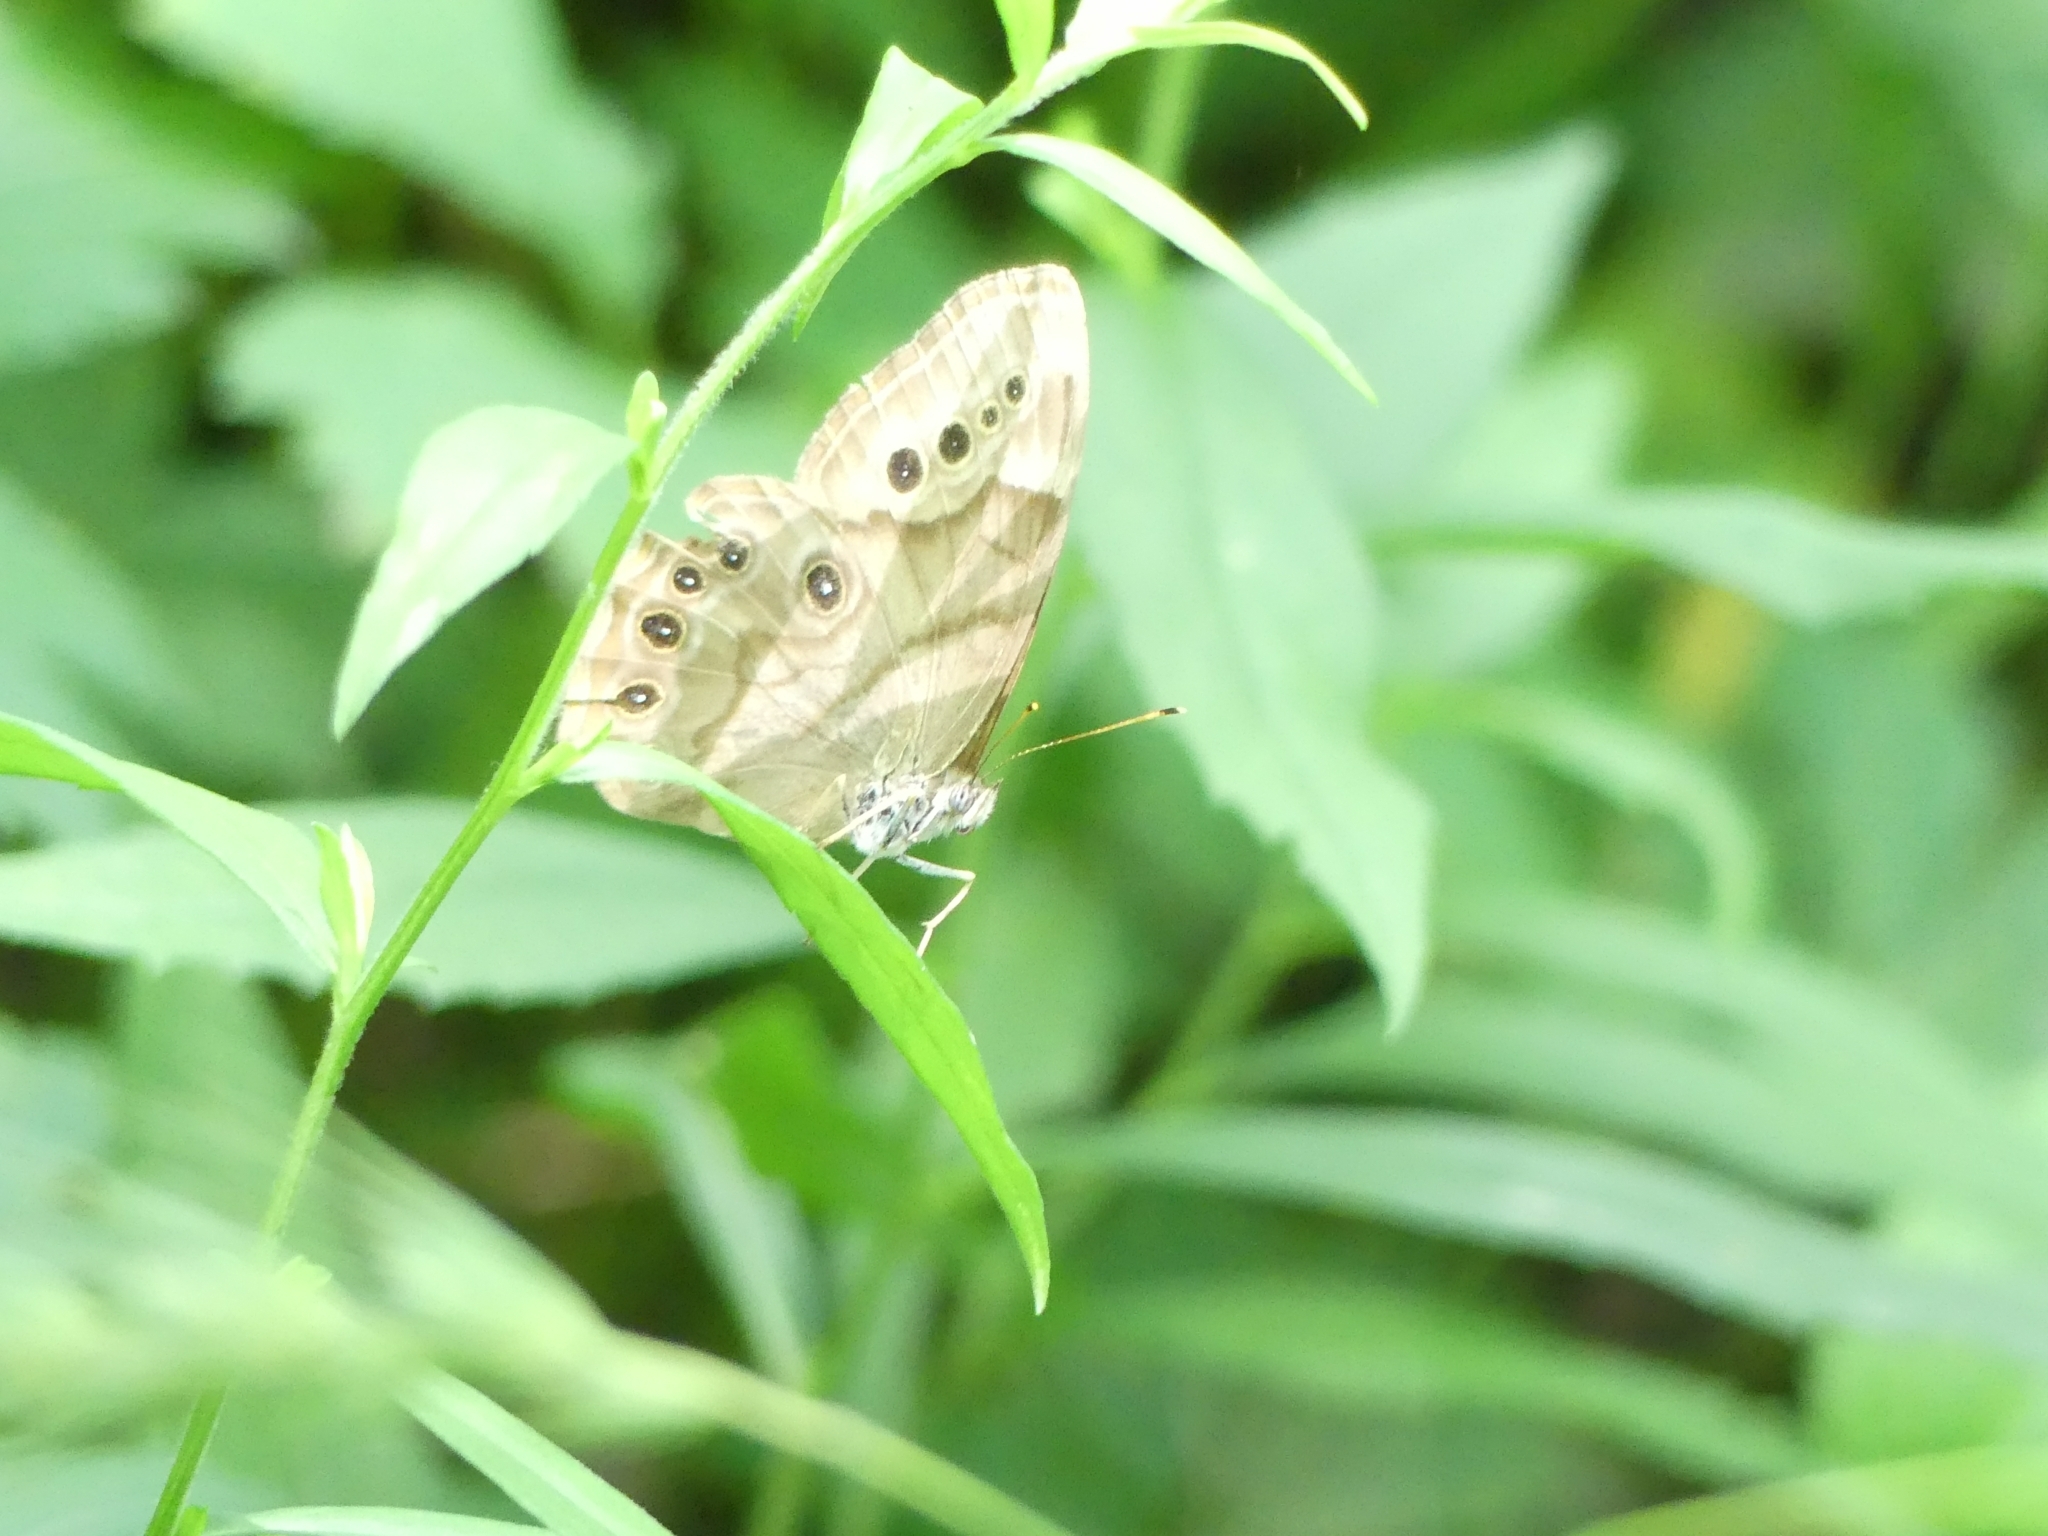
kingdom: Animalia
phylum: Arthropoda
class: Insecta
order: Lepidoptera
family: Nymphalidae
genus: Lethe
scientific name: Lethe anthedon
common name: Northern pearly-eye
